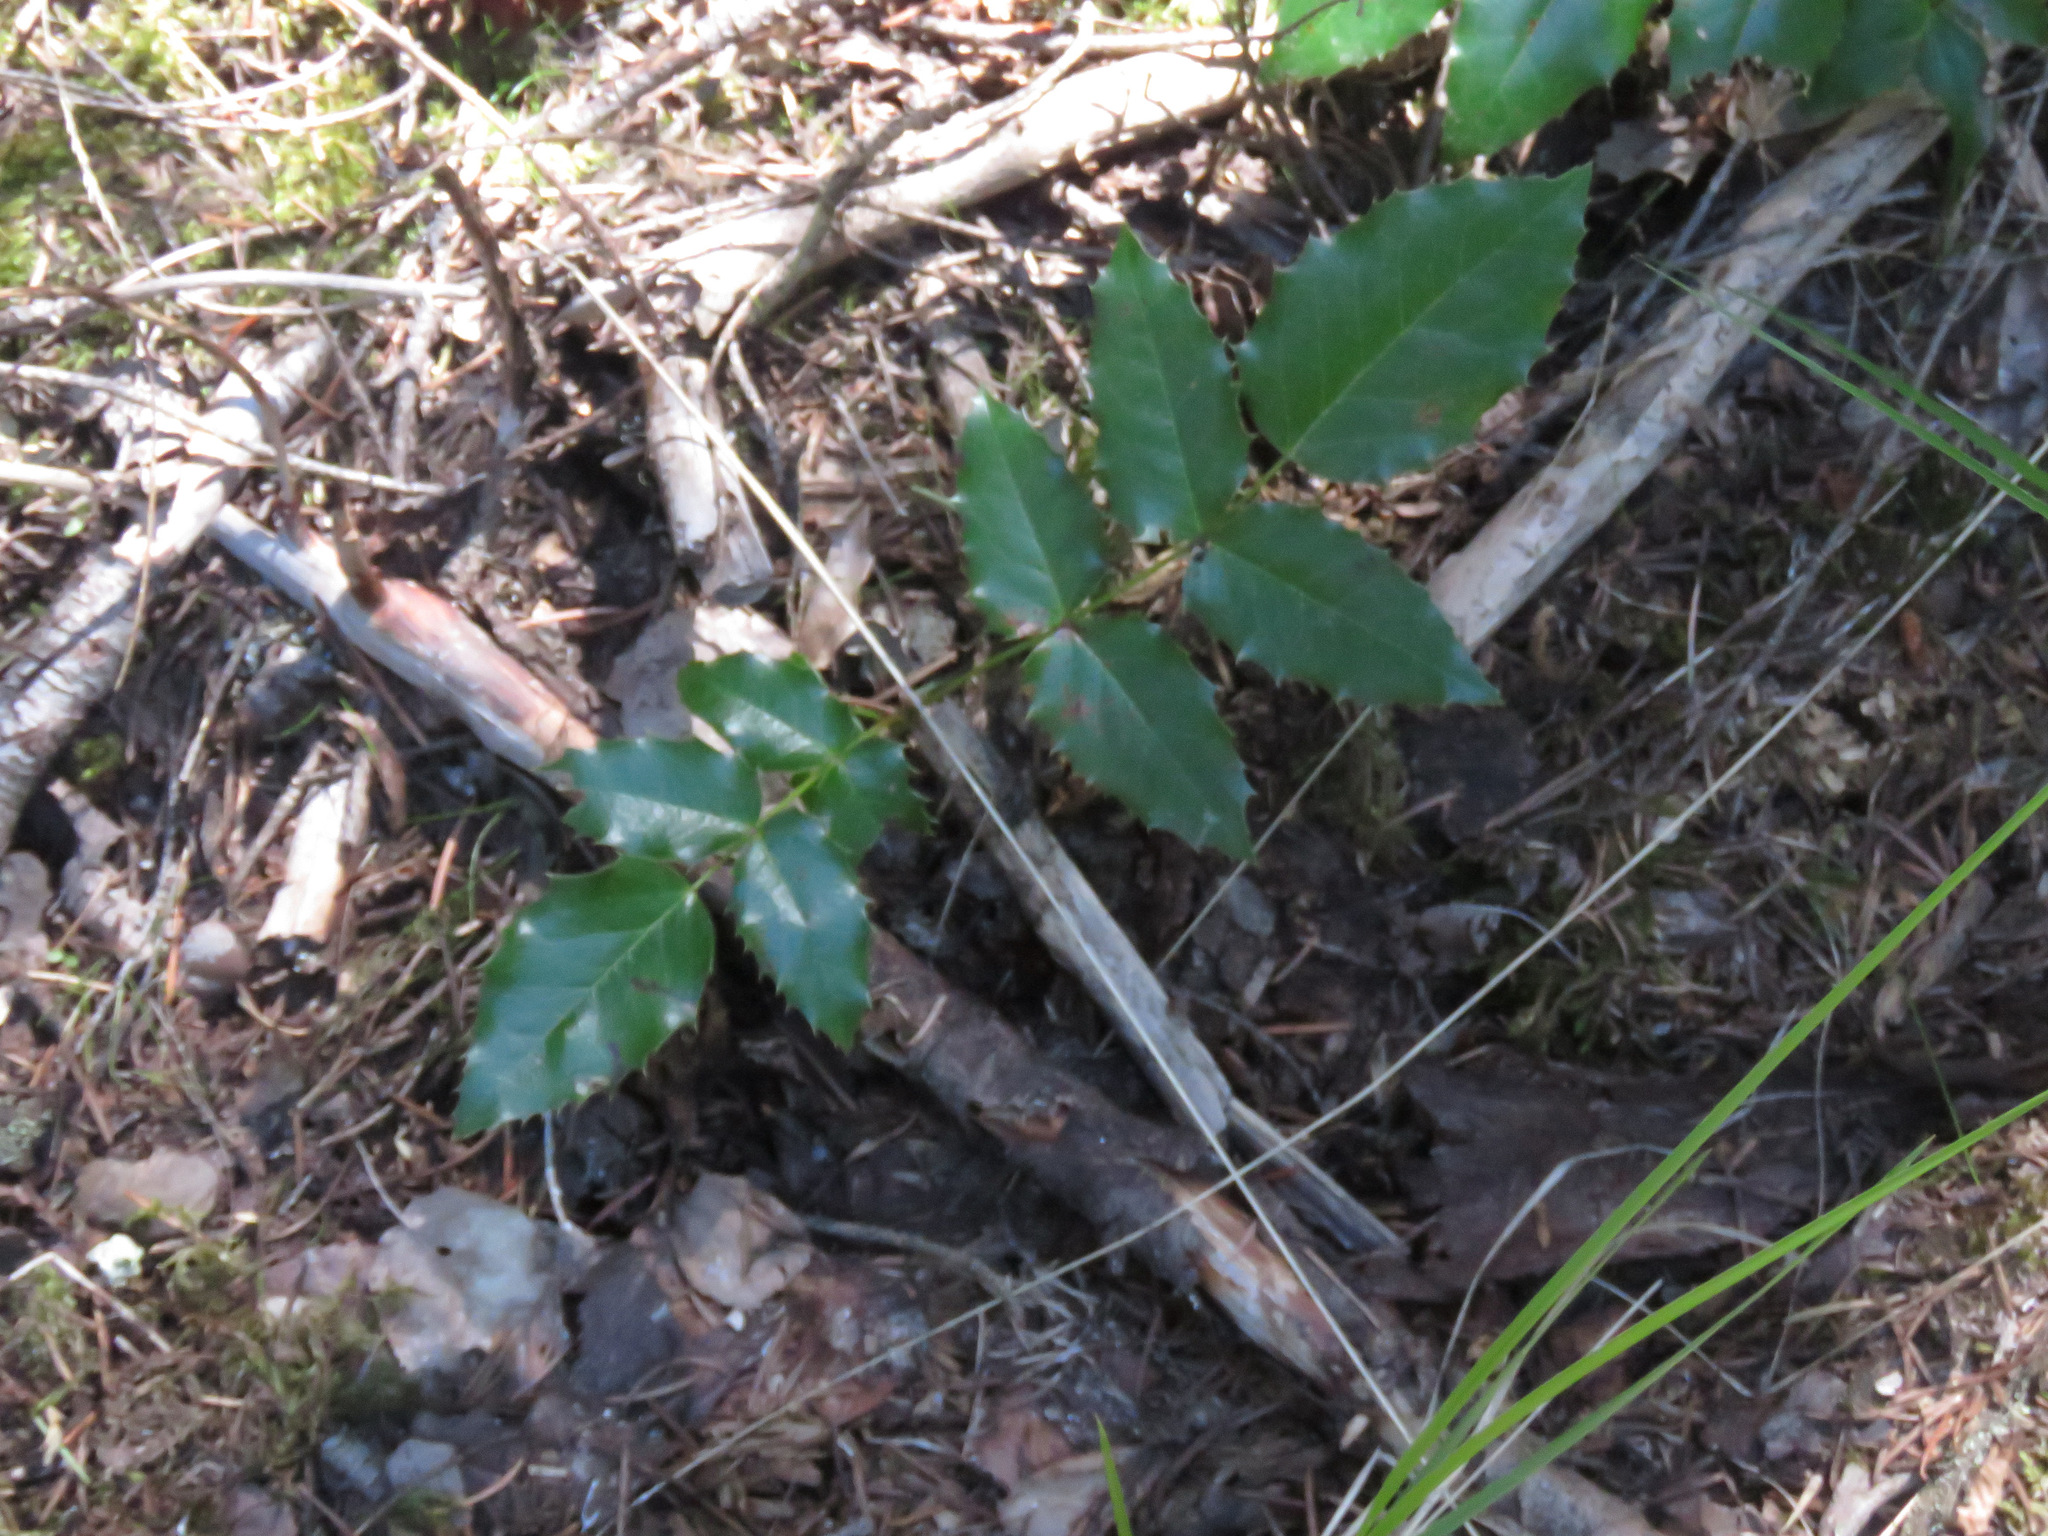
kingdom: Plantae
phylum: Tracheophyta
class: Magnoliopsida
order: Ranunculales
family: Berberidaceae
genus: Mahonia
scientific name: Mahonia aquifolium
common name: Oregon-grape
